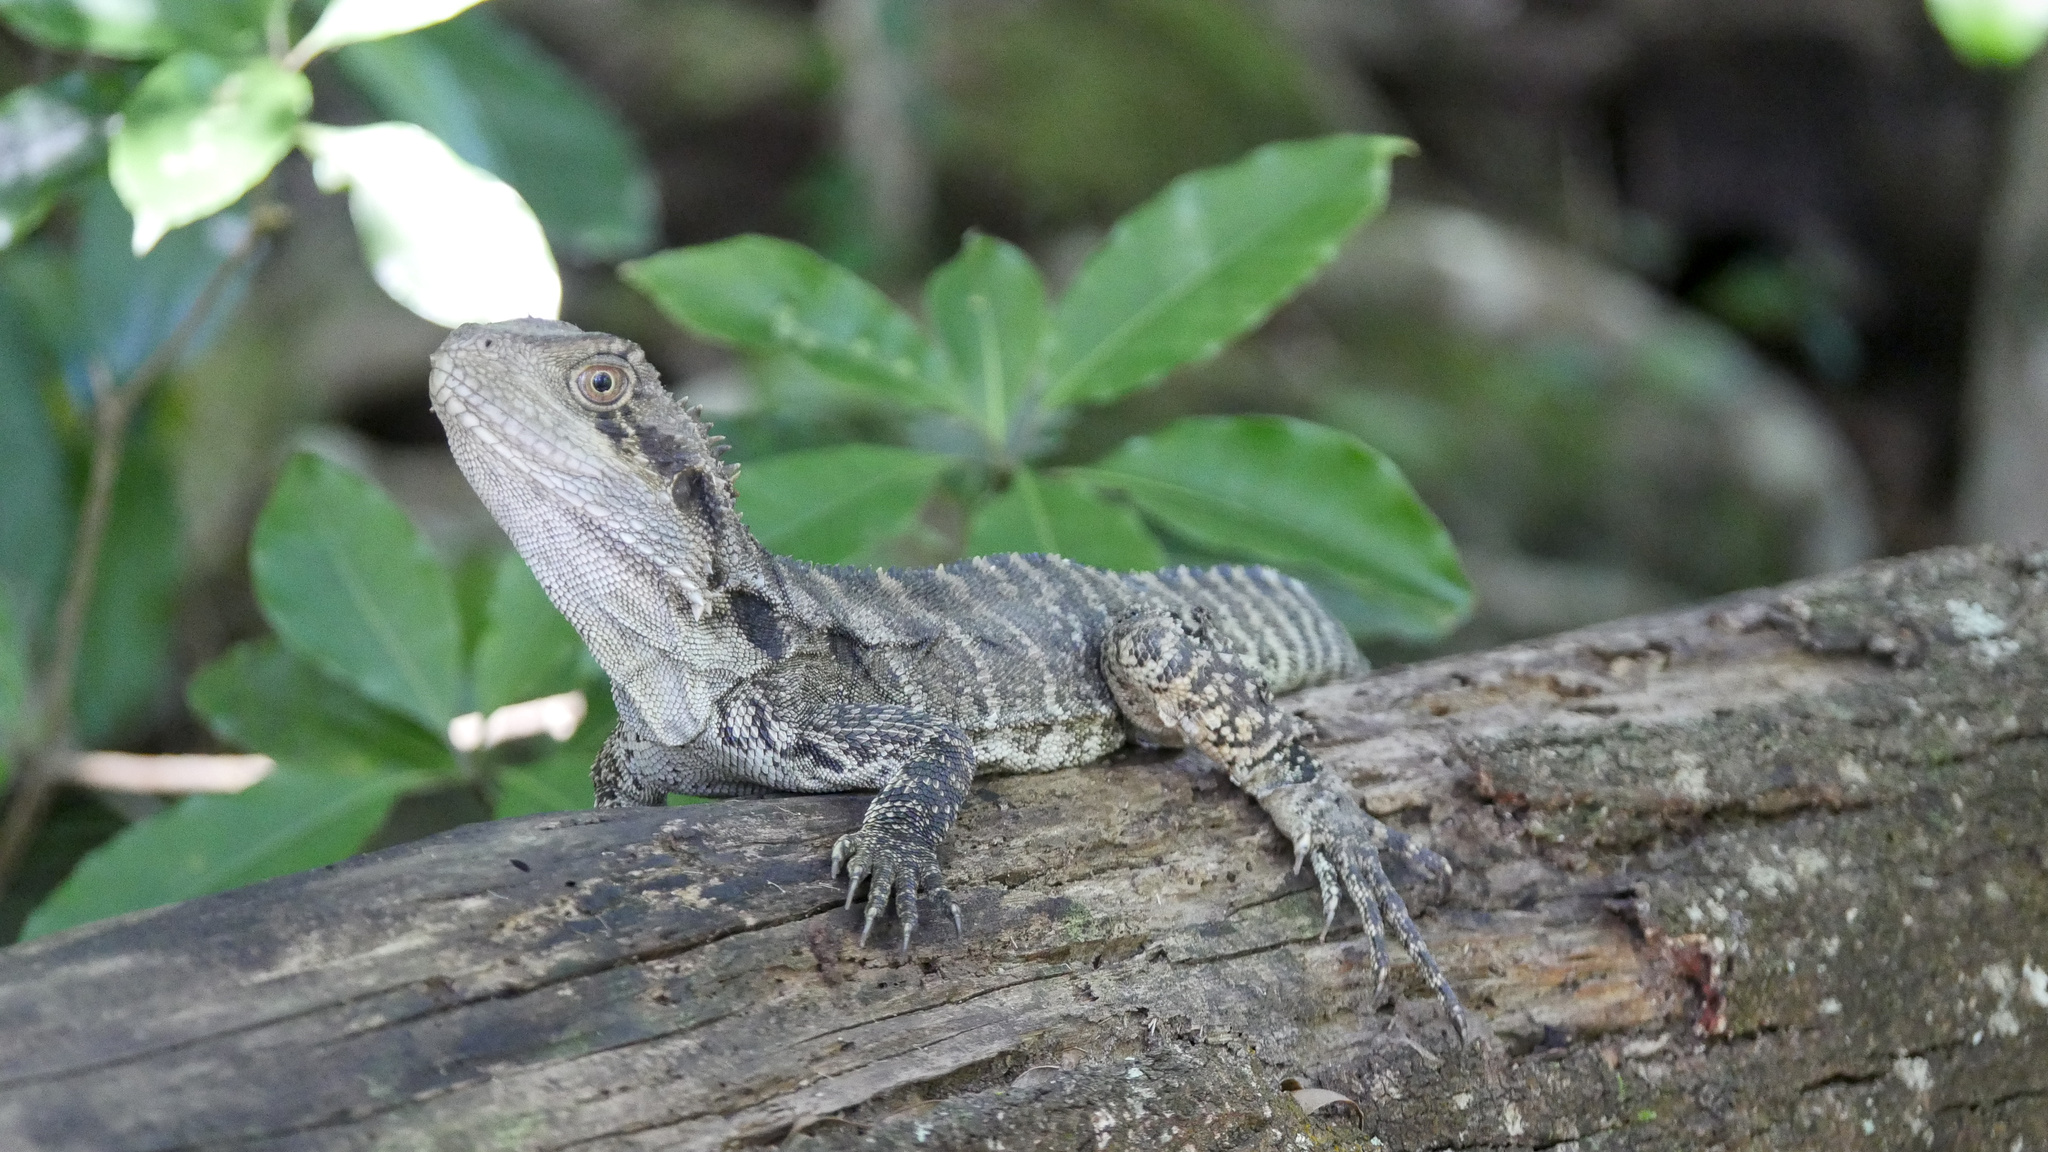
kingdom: Animalia
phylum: Chordata
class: Squamata
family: Agamidae
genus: Intellagama
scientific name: Intellagama lesueurii
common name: Eastern water dragon
